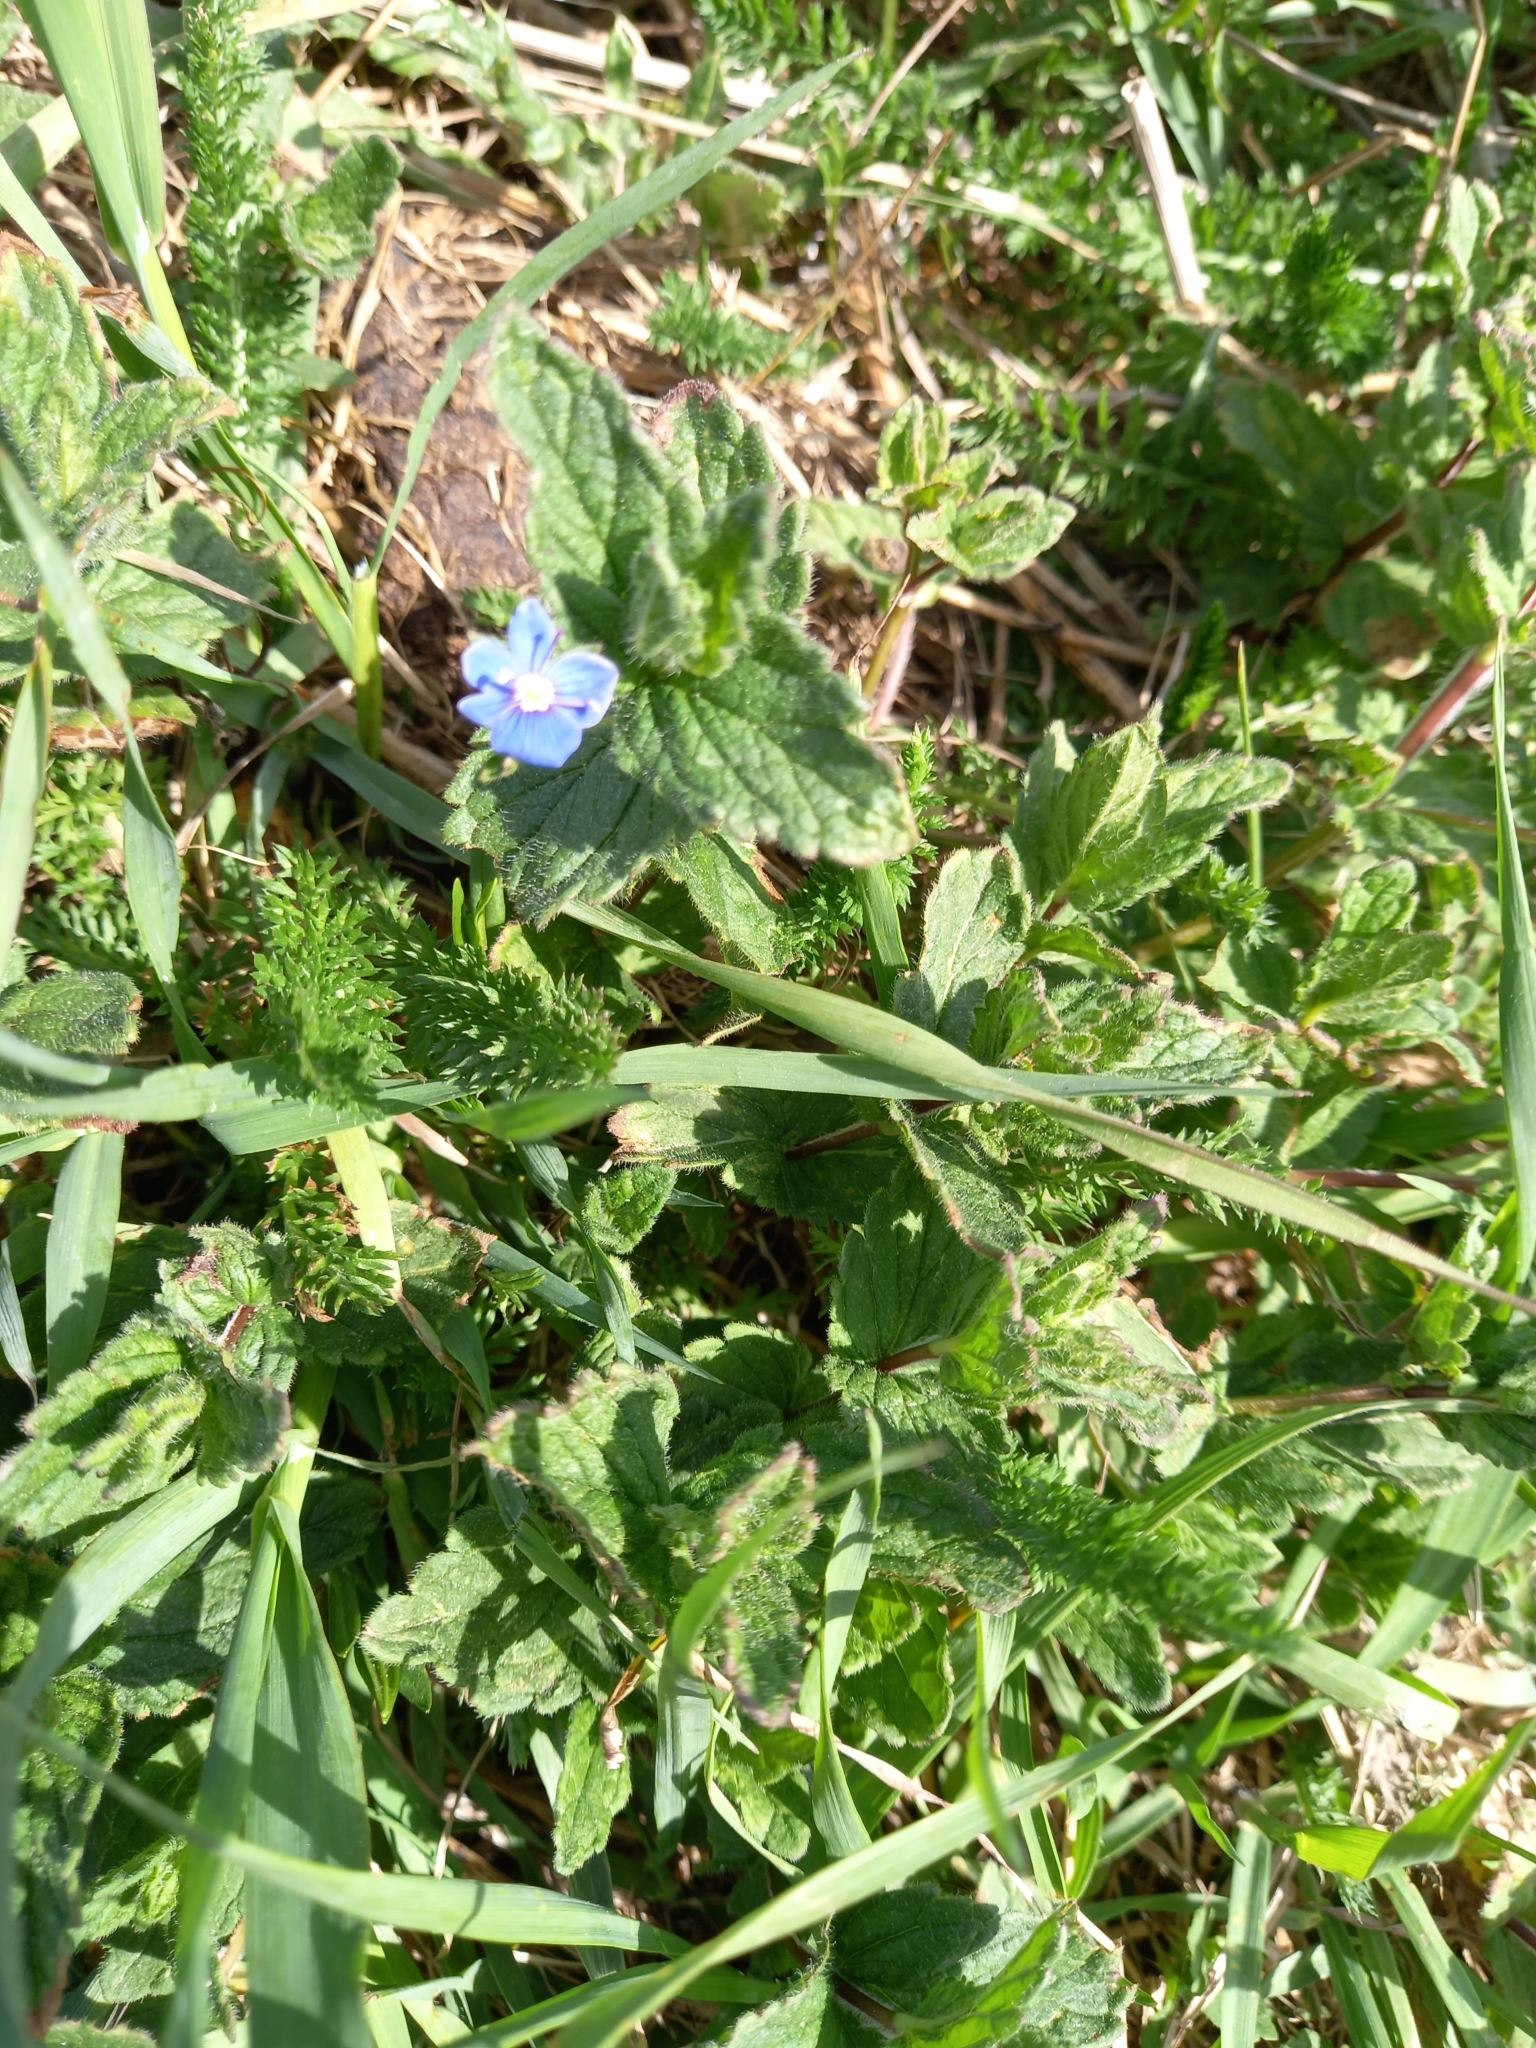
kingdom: Plantae
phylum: Tracheophyta
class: Magnoliopsida
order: Lamiales
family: Plantaginaceae
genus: Veronica
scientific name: Veronica chamaedrys
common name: Germander speedwell
